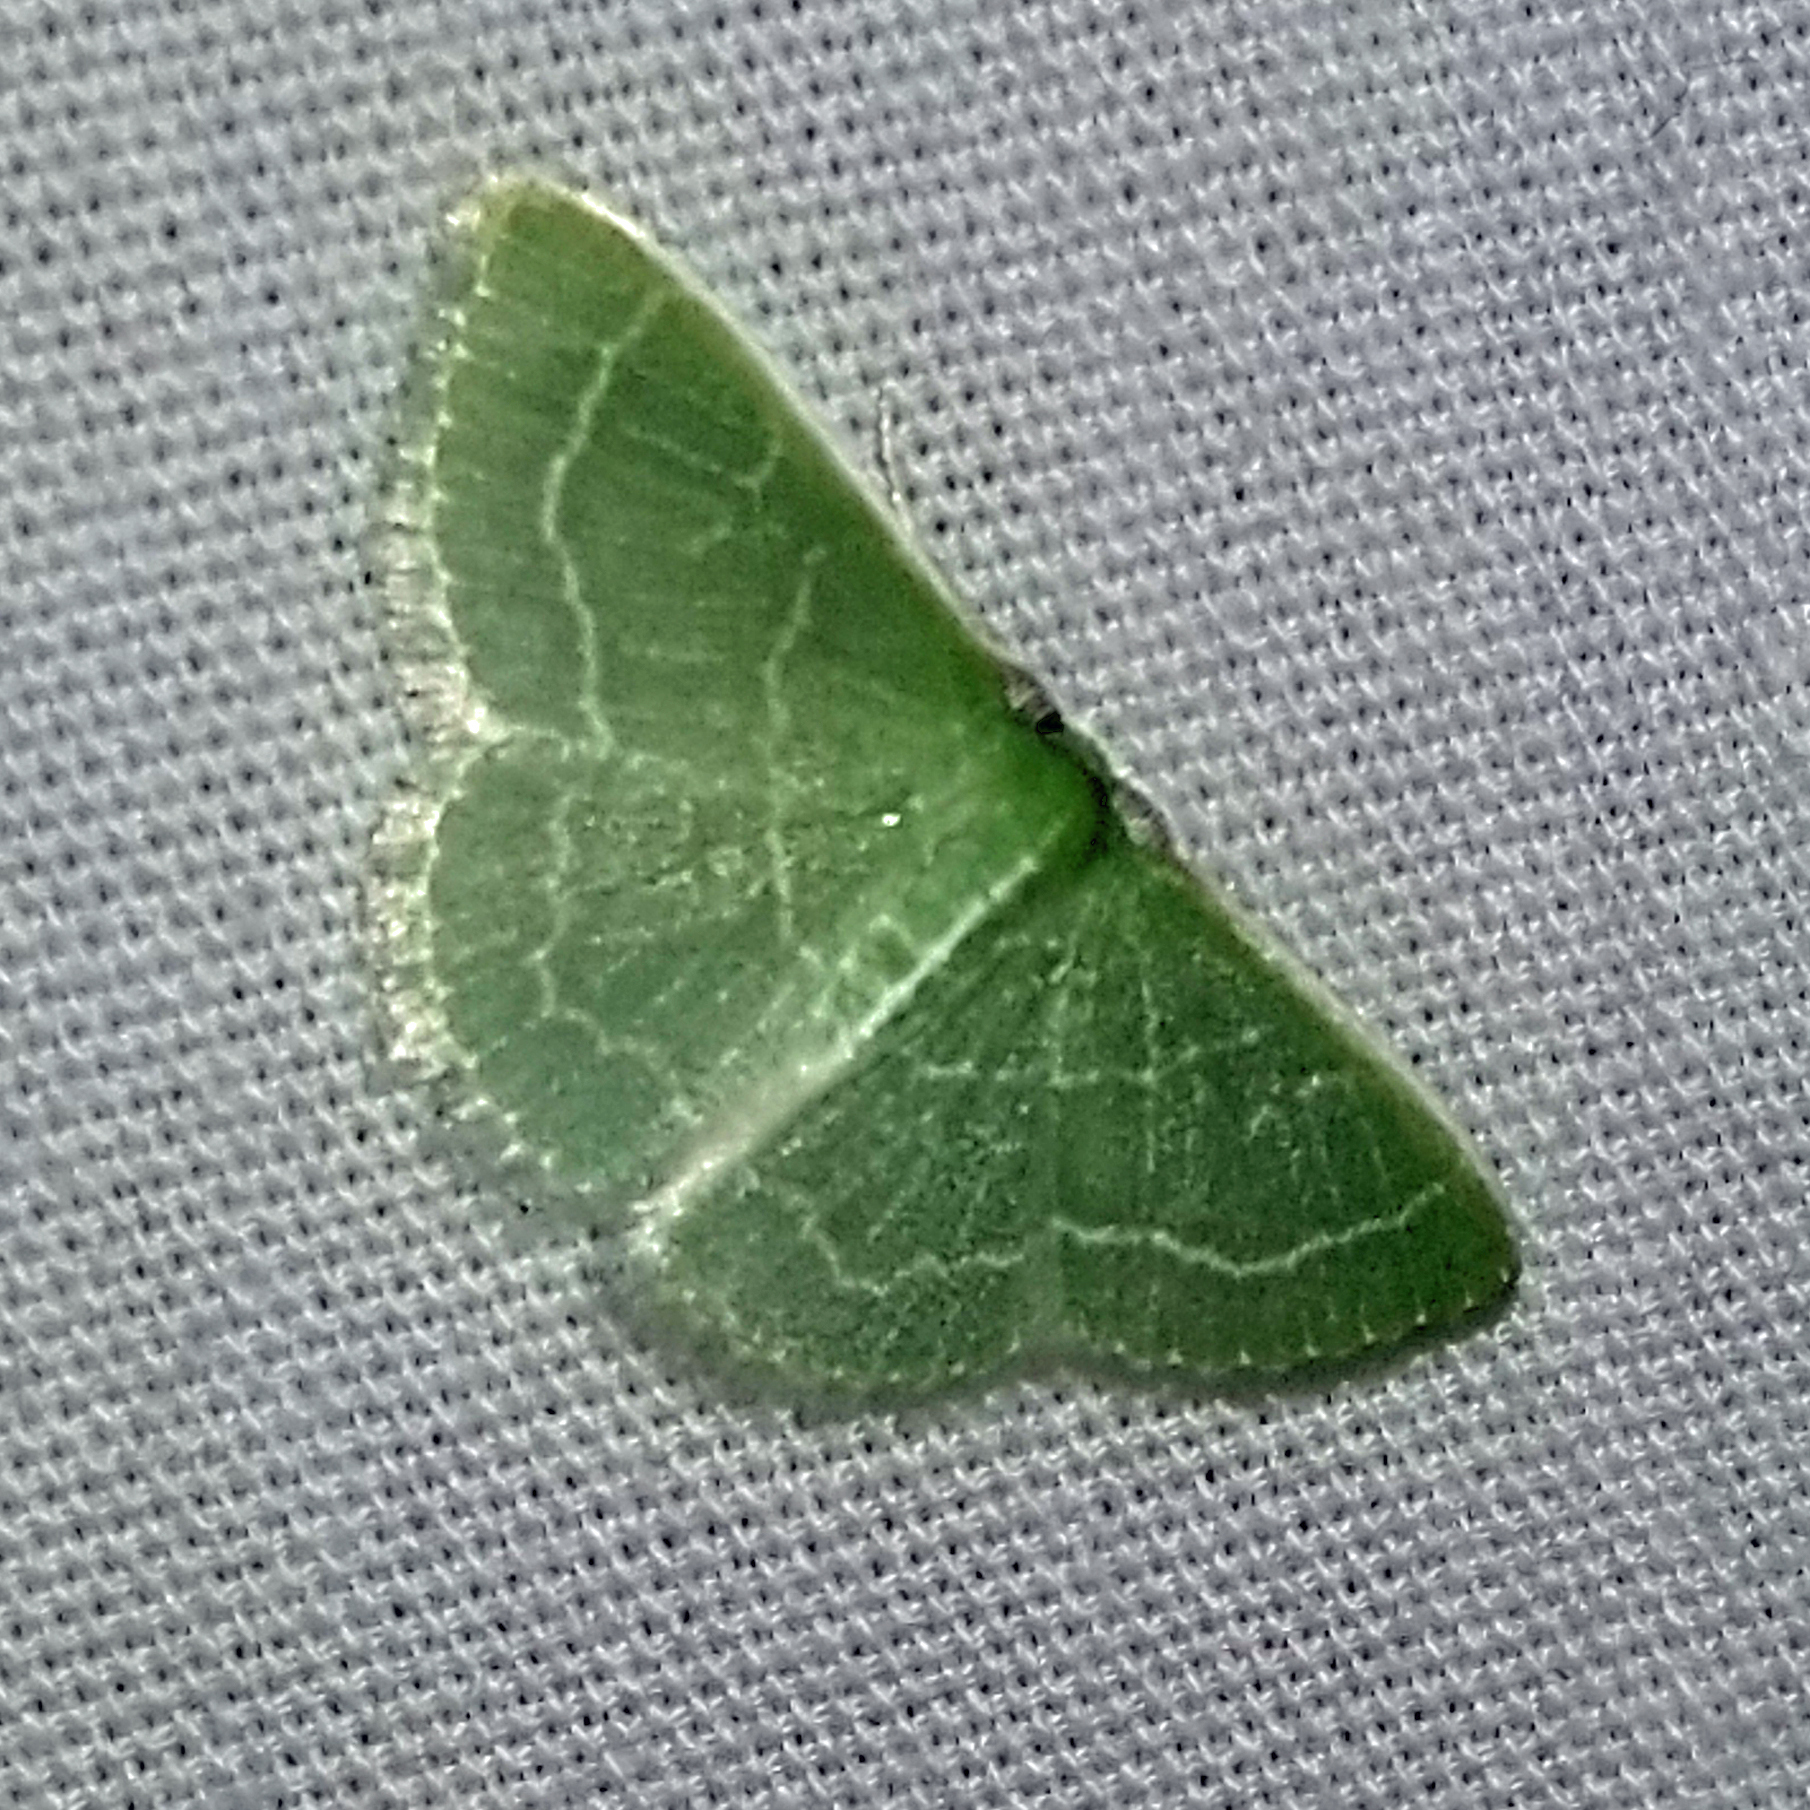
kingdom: Animalia
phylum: Arthropoda
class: Insecta
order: Lepidoptera
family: Geometridae
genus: Synchlora
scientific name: Synchlora aerata
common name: Wavy-lined emerald
